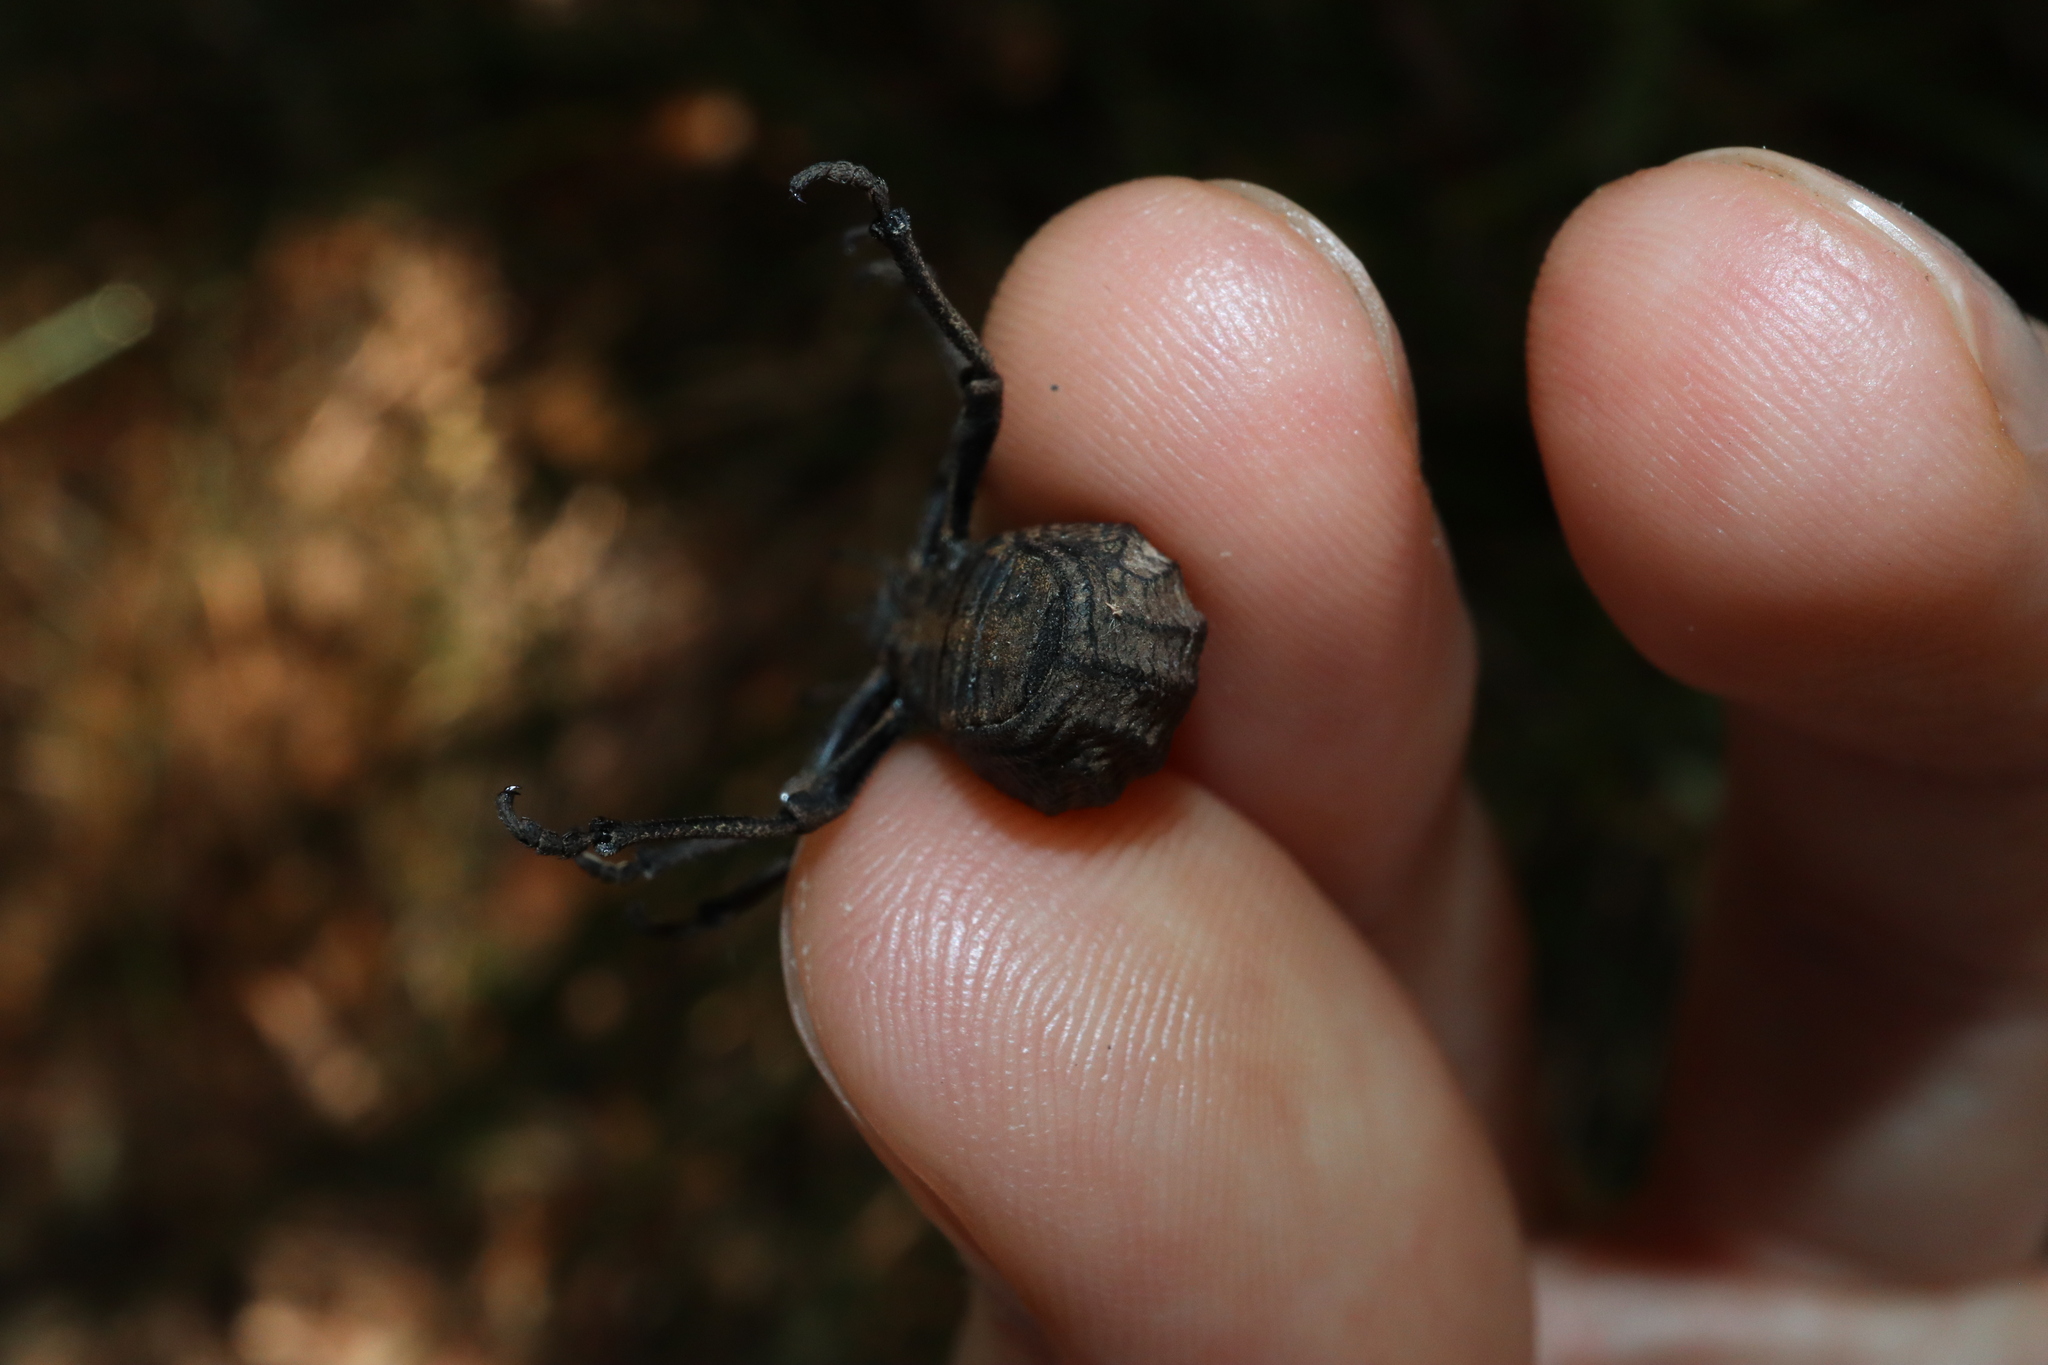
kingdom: Animalia
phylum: Arthropoda
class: Insecta
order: Coleoptera
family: Curculionidae
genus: Talaurinus
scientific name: Talaurinus lacunosus
